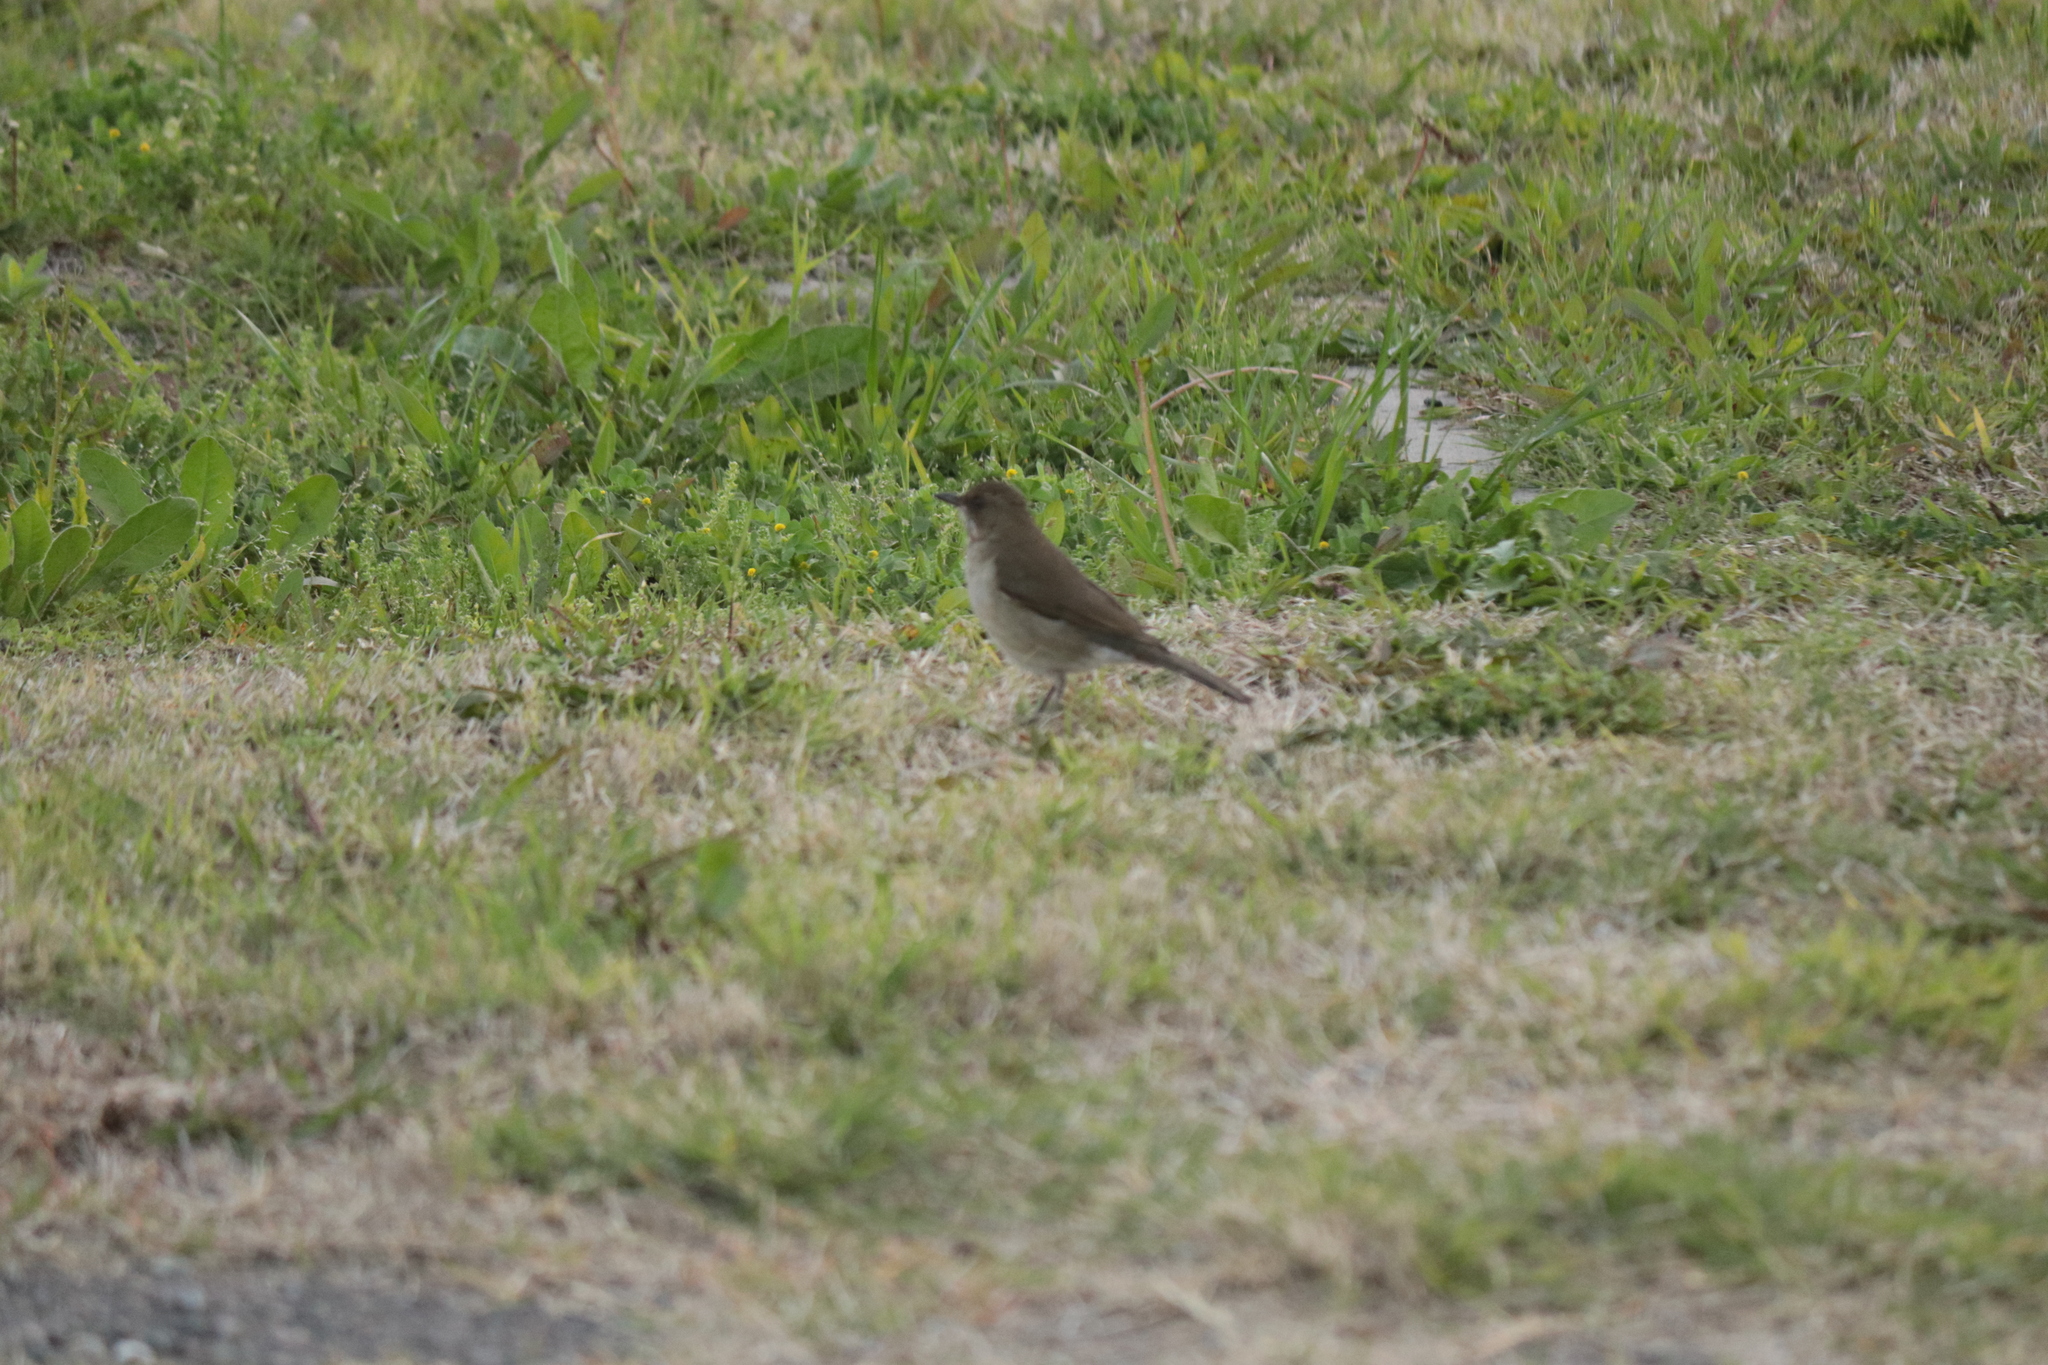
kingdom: Animalia
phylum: Chordata
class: Aves
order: Passeriformes
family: Turdidae
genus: Turdus
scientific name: Turdus amaurochalinus
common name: Creamy-bellied thrush
